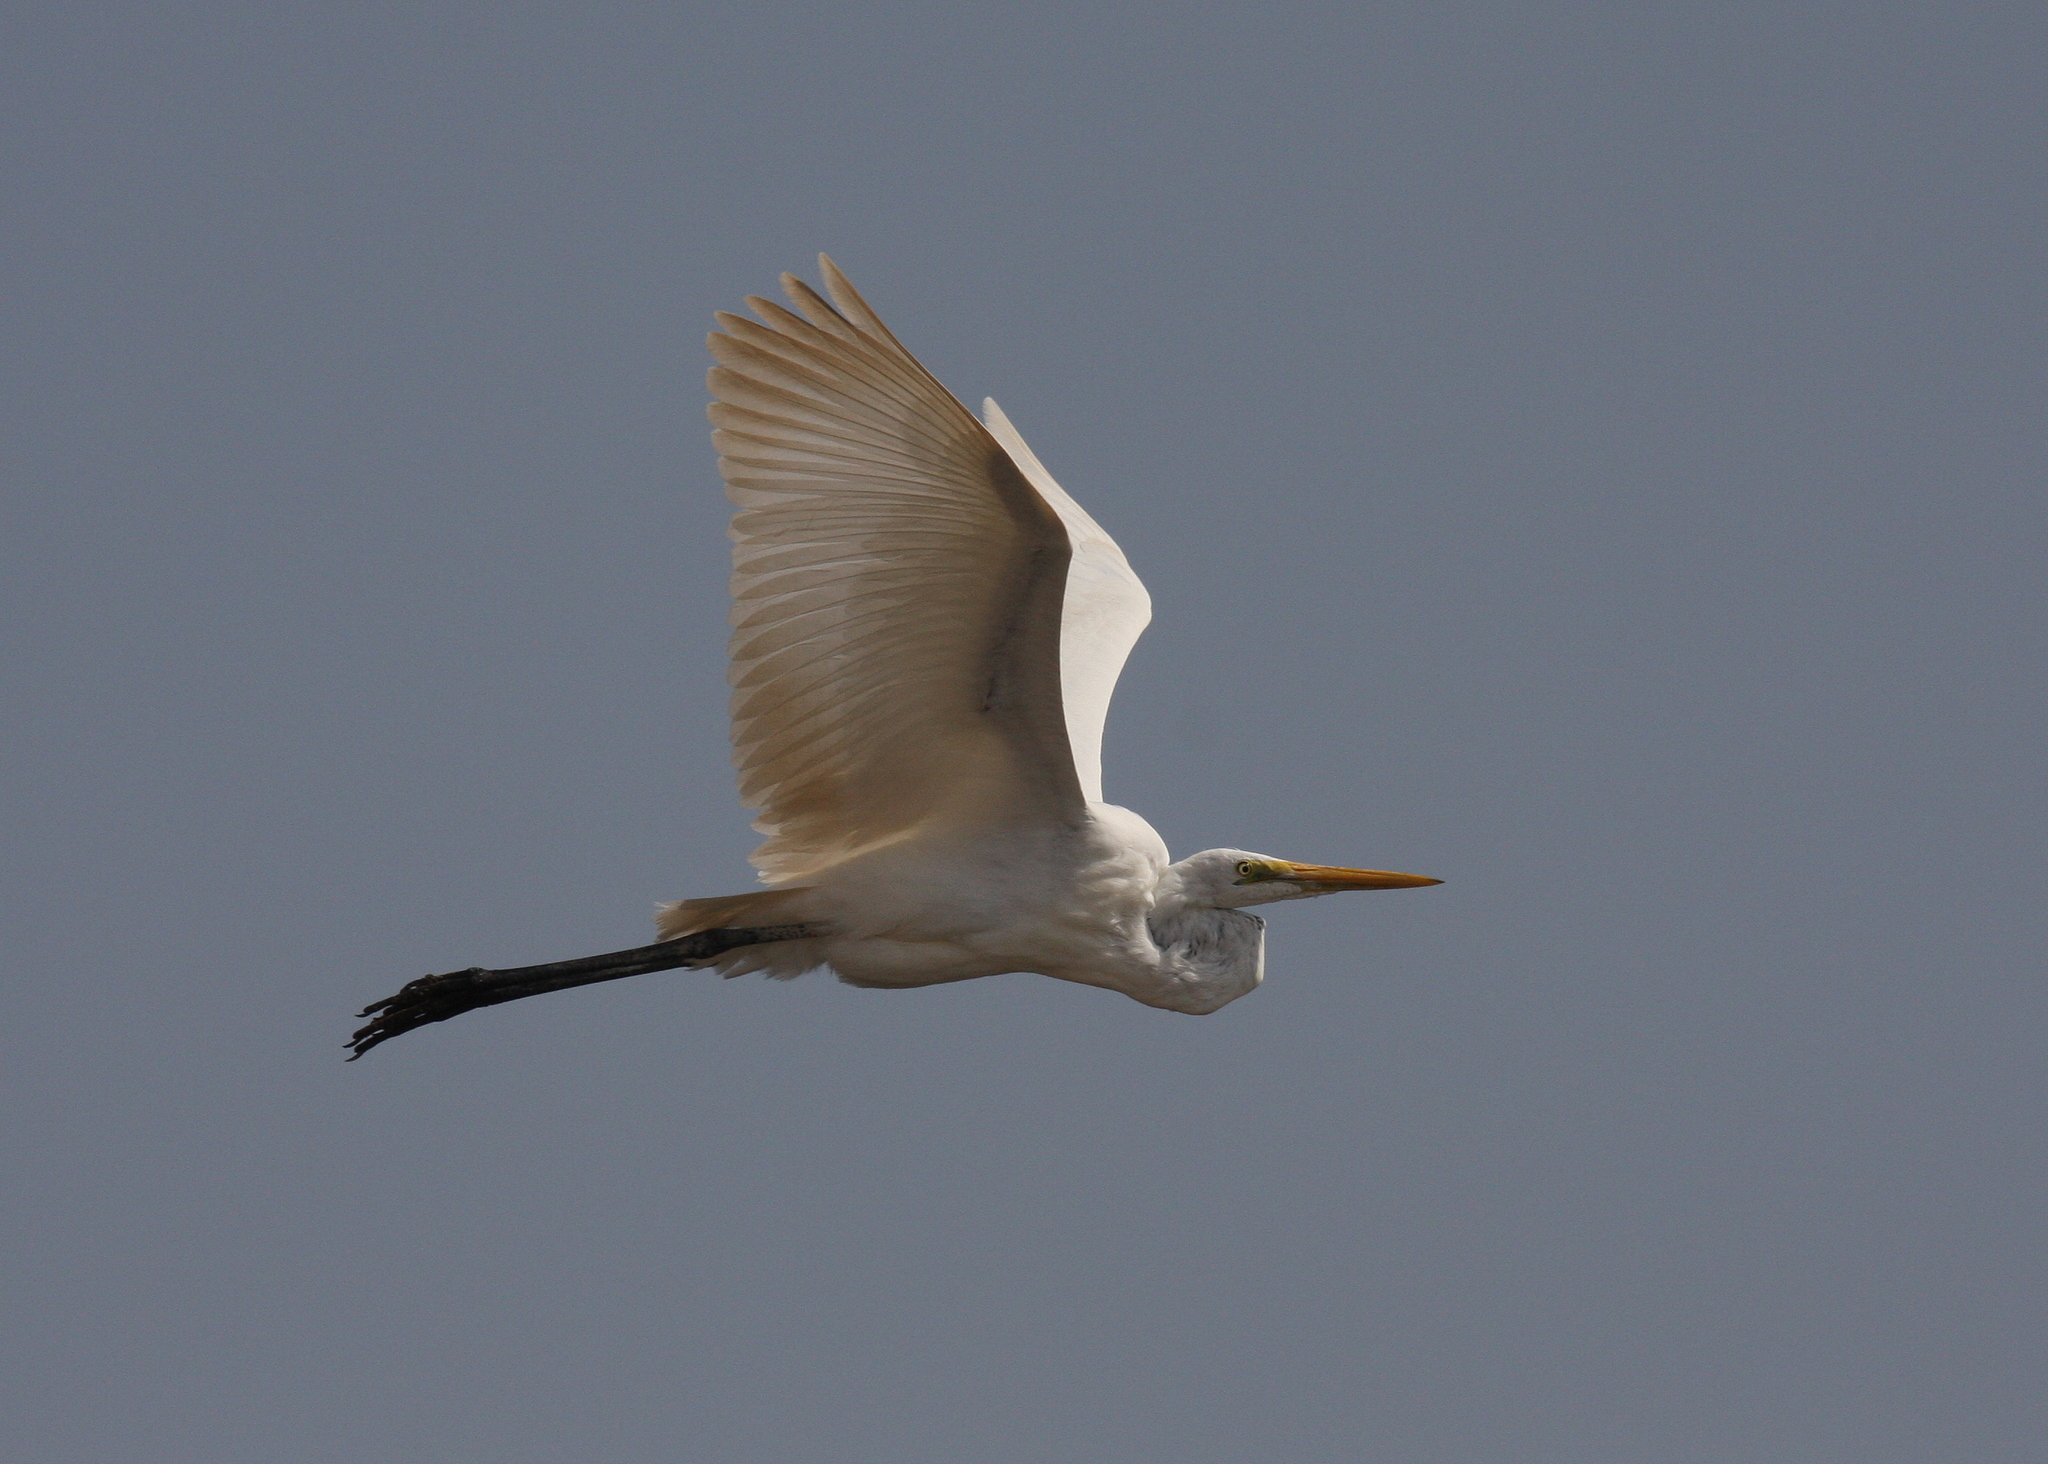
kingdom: Animalia
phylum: Chordata
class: Aves
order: Pelecaniformes
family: Ardeidae
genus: Ardea
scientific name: Ardea alba
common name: Great egret
